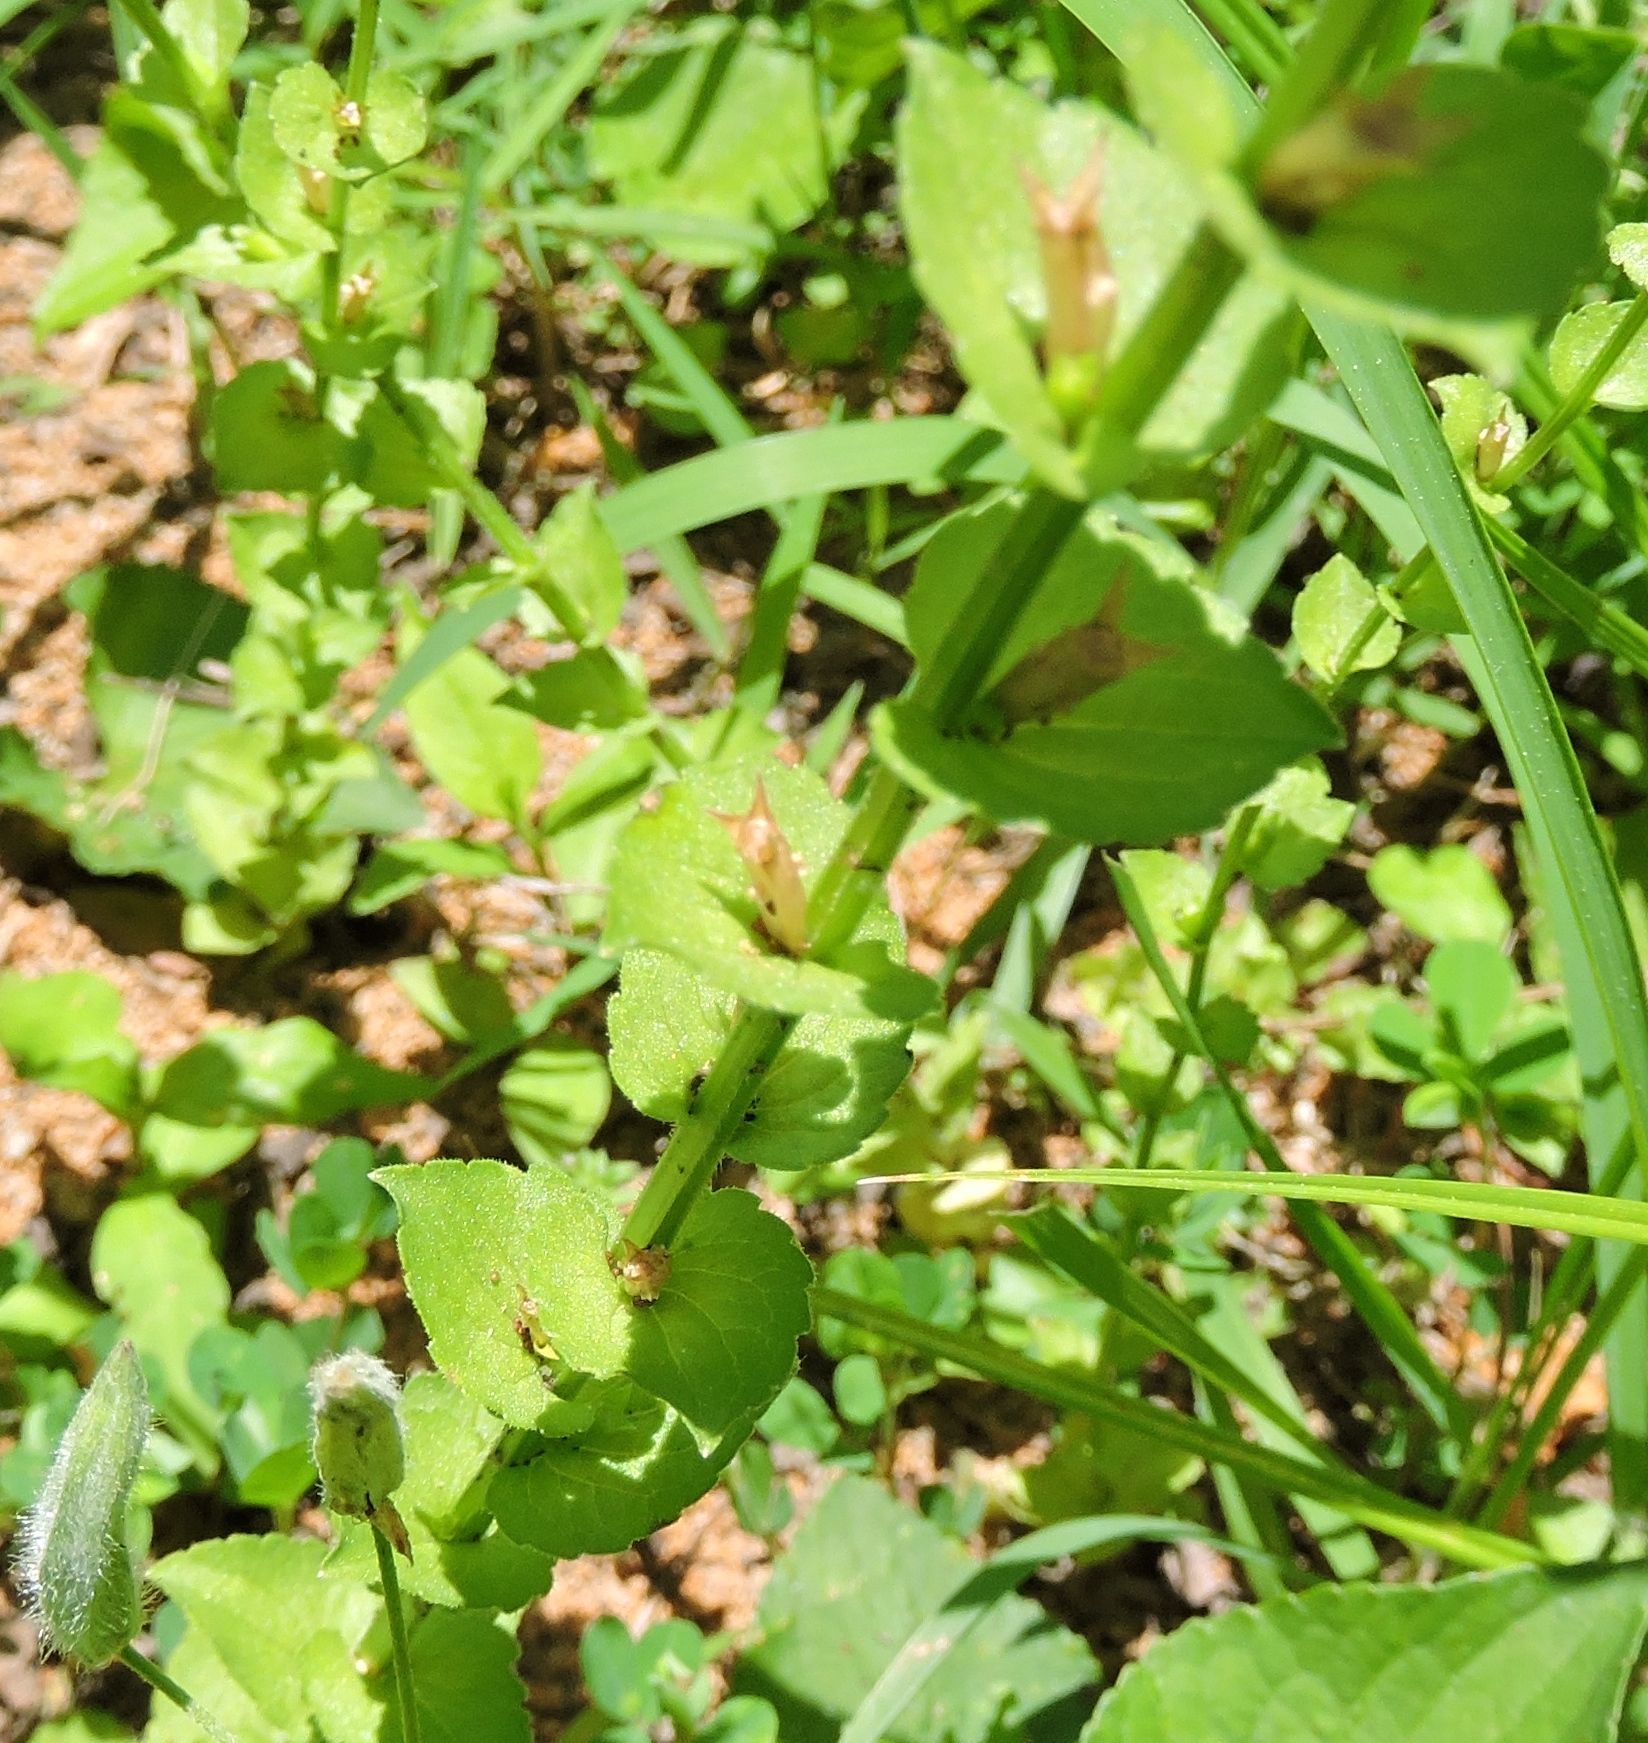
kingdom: Plantae
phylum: Tracheophyta
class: Magnoliopsida
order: Asterales
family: Campanulaceae
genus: Triodanis
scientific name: Triodanis perfoliata
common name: Clasping venus' looking-glass
